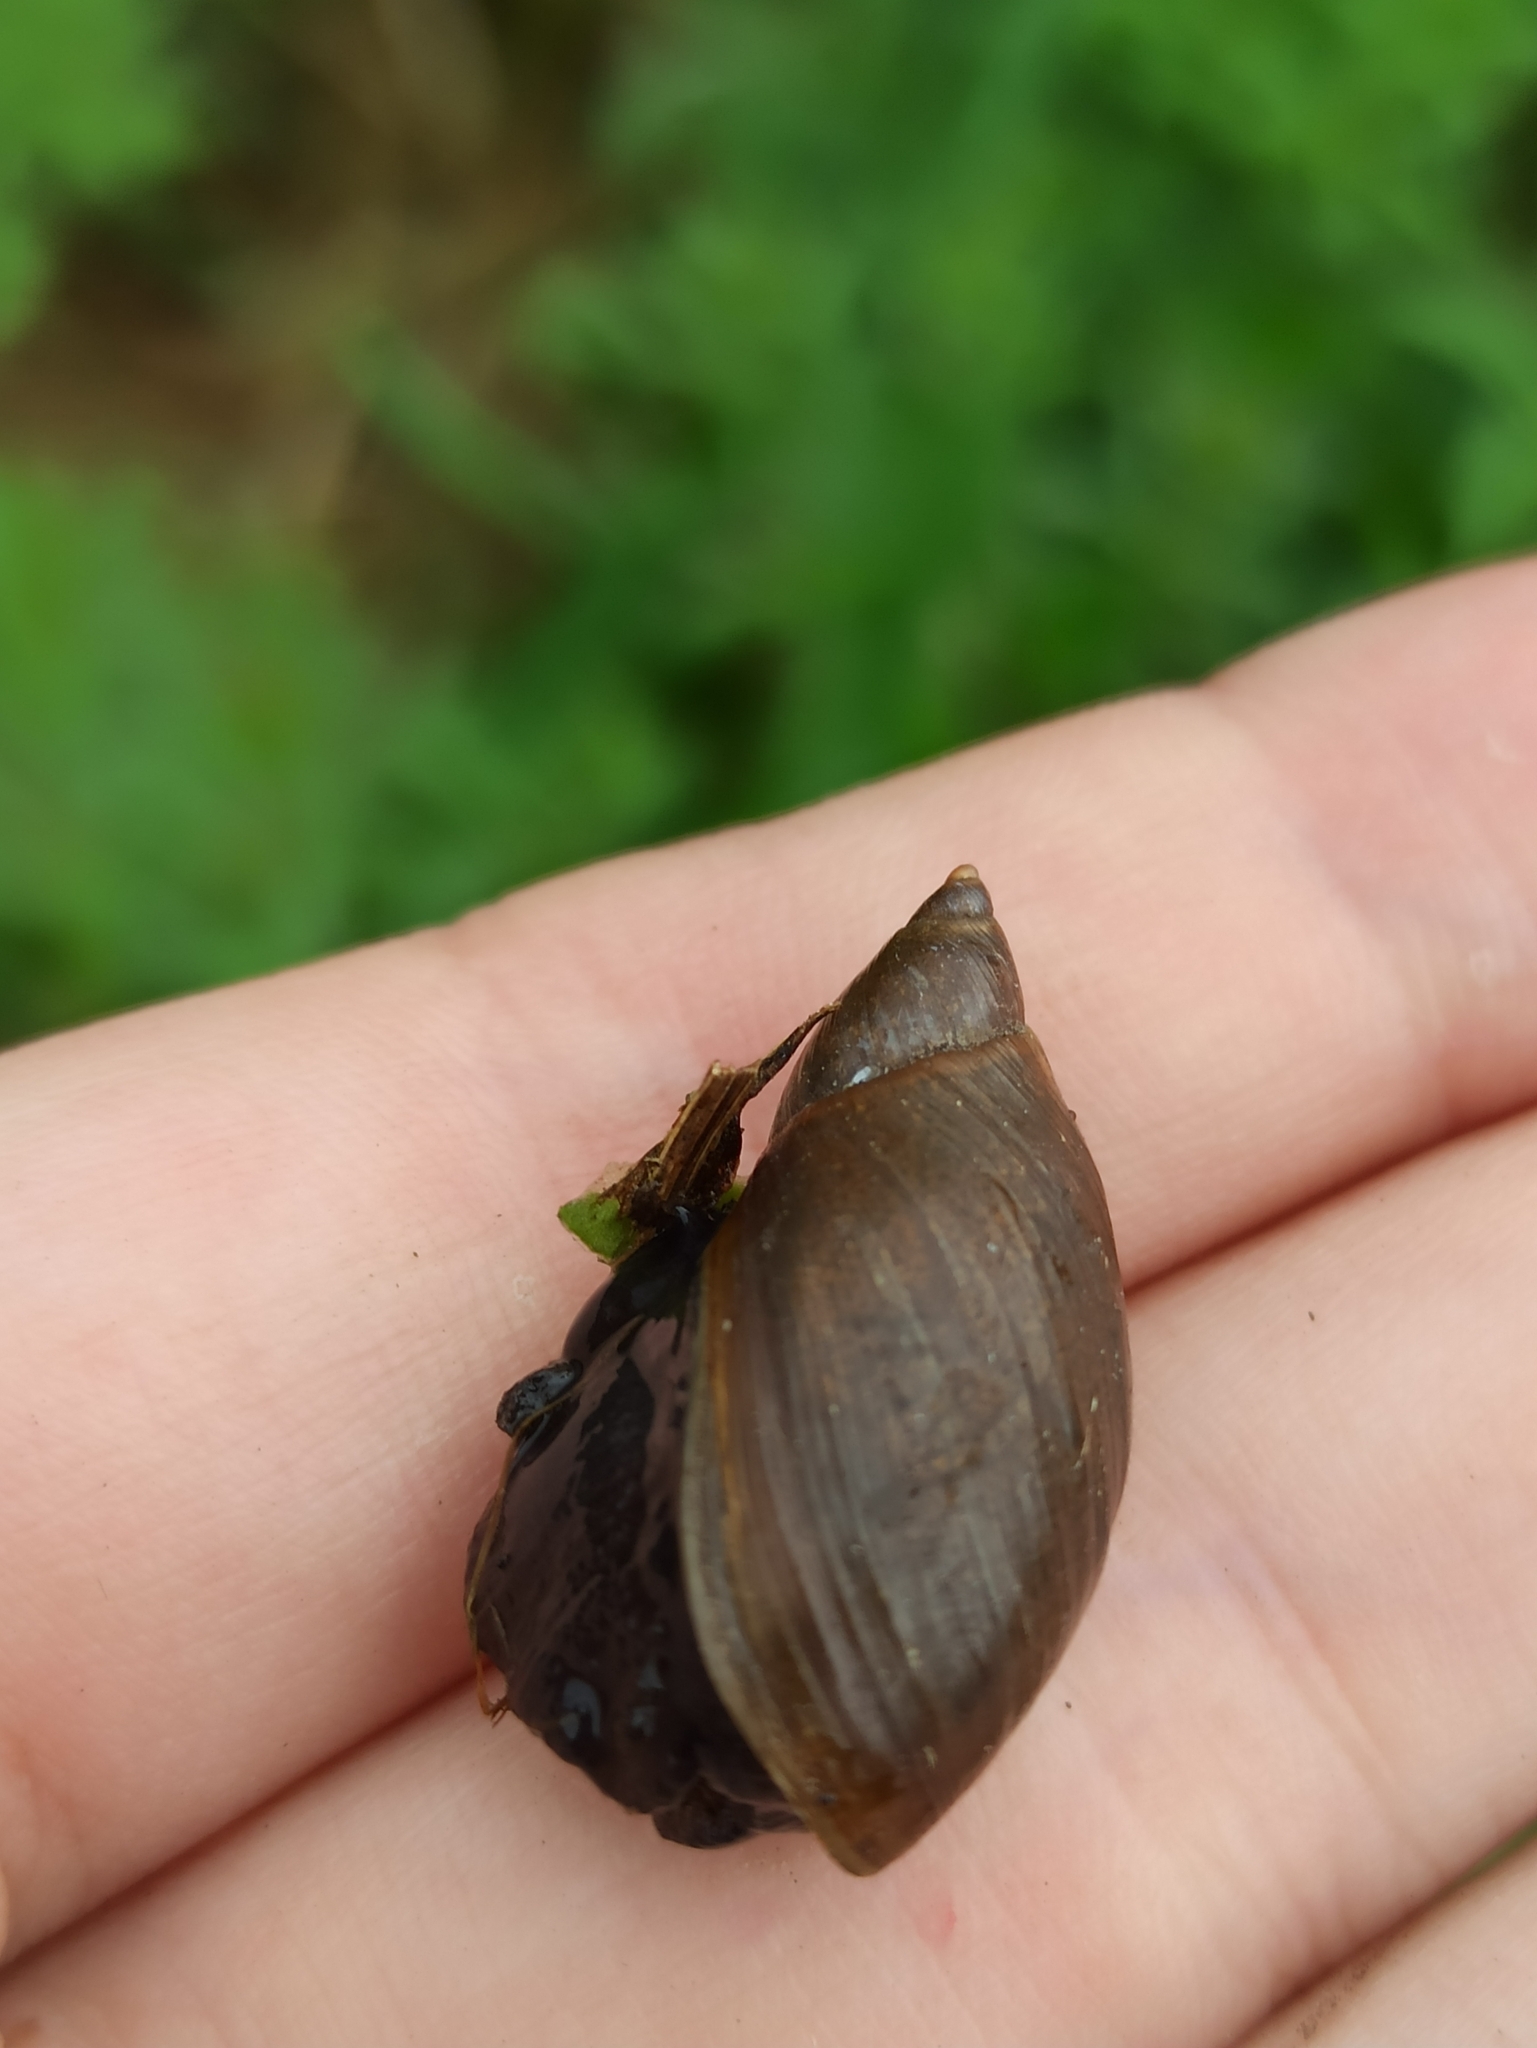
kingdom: Animalia
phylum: Mollusca
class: Gastropoda
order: Stylommatophora
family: Succineidae
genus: Succinea
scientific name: Succinea putris
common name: European ambersnail
